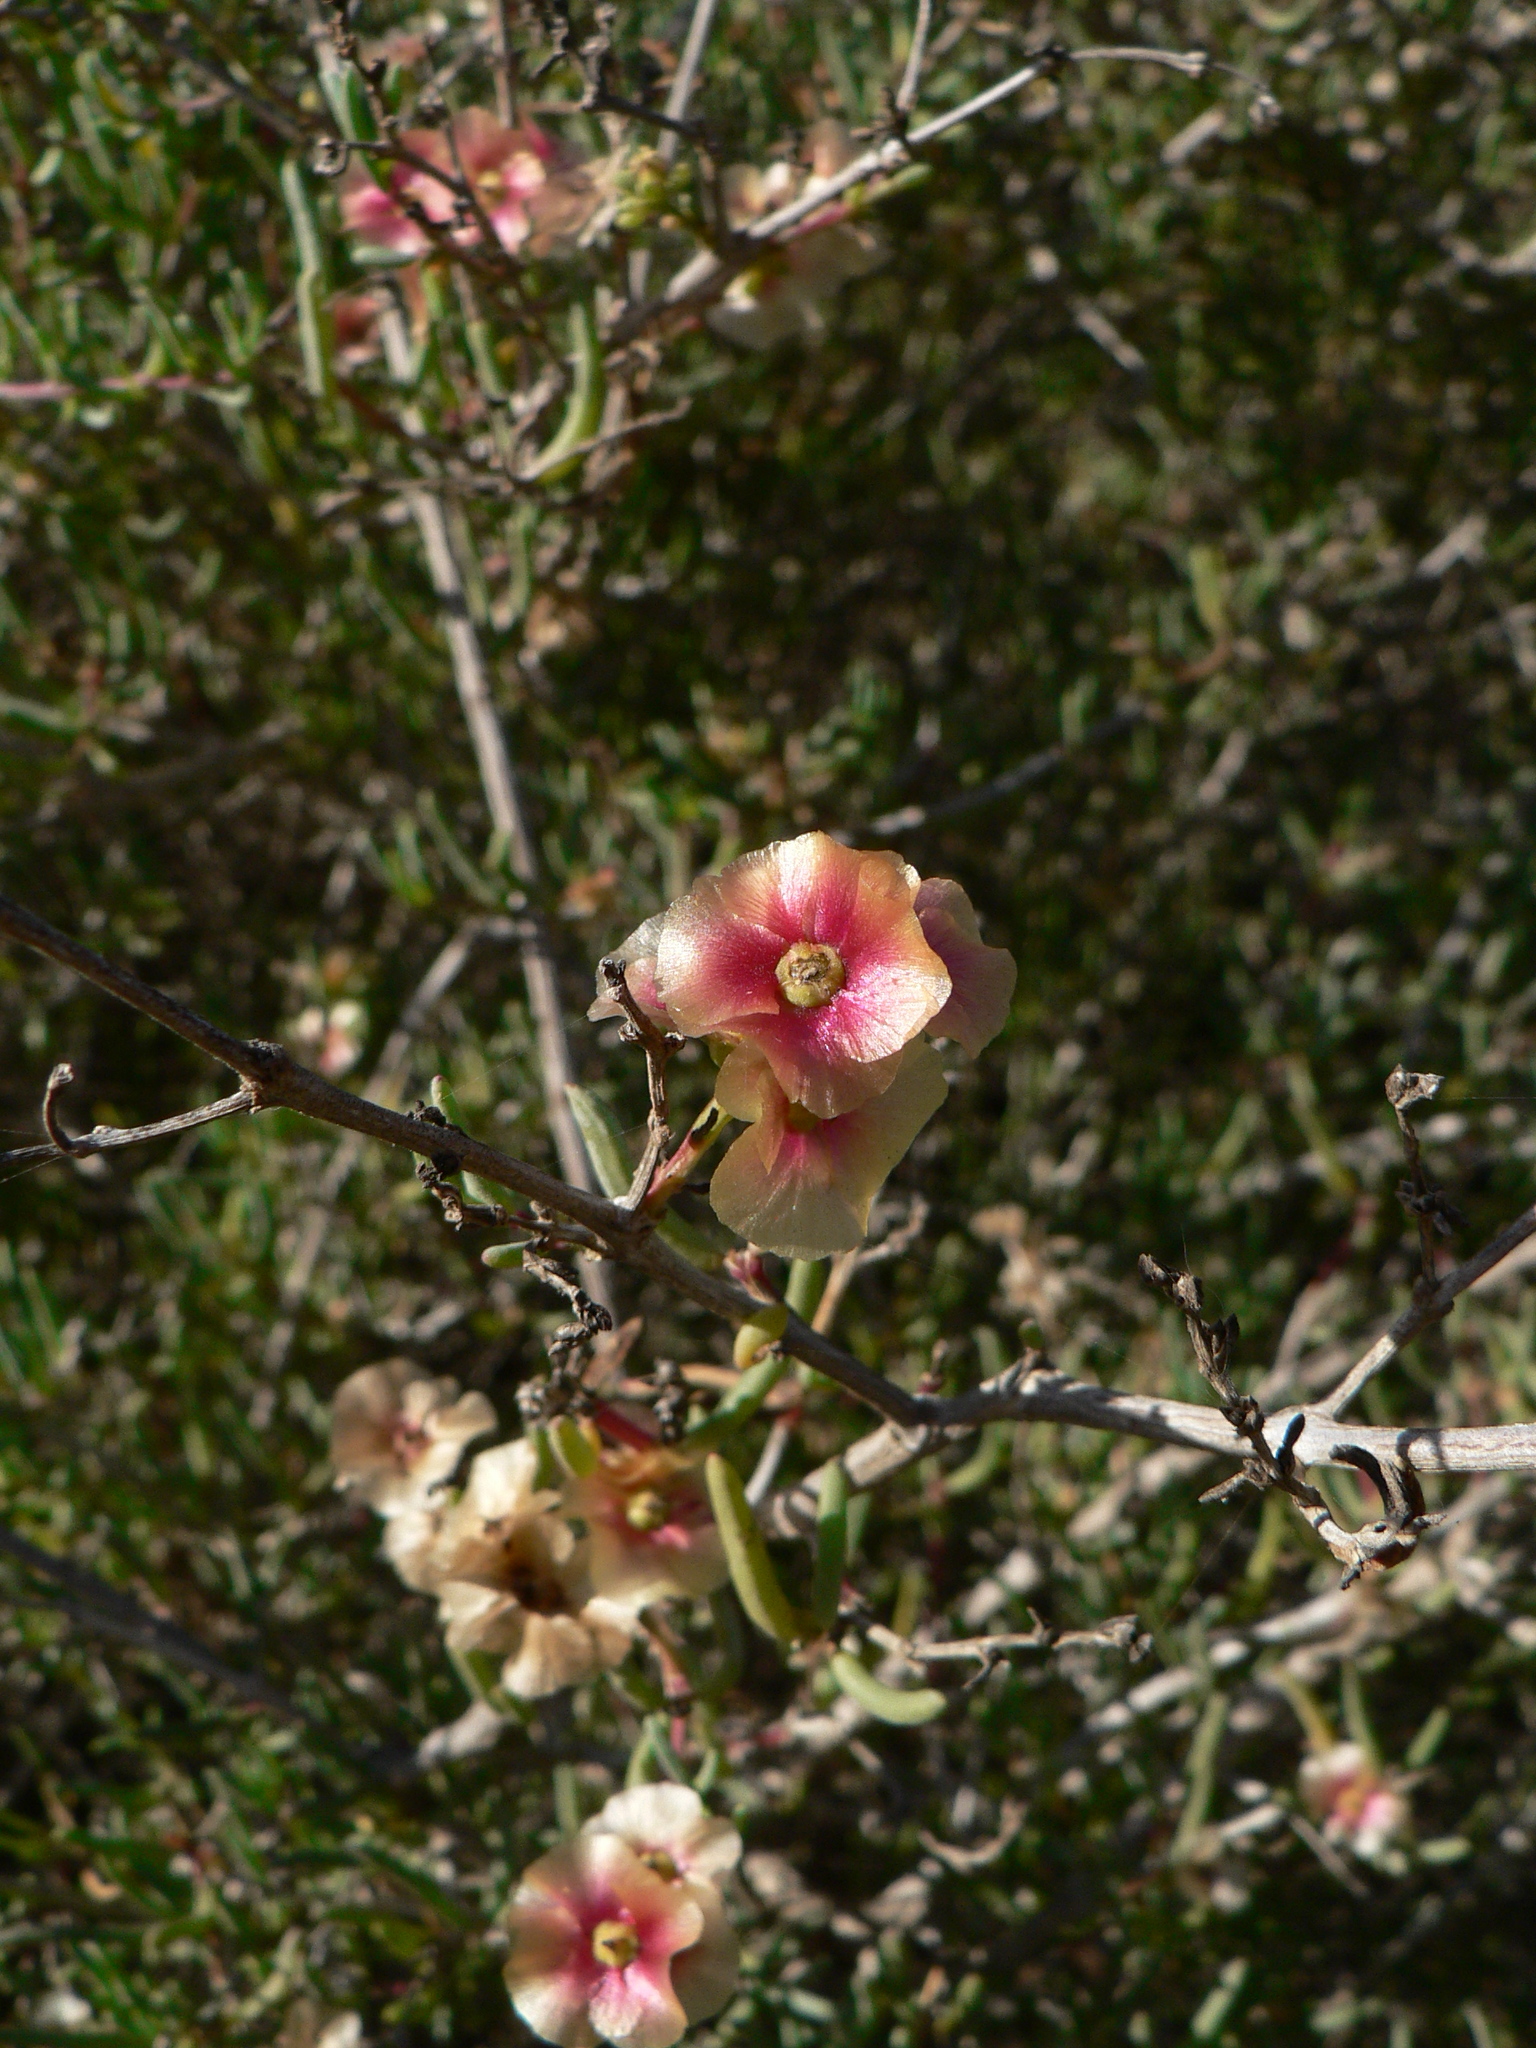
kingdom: Plantae
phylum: Tracheophyta
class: Magnoliopsida
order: Caryophyllales
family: Amaranthaceae
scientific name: Amaranthaceae
